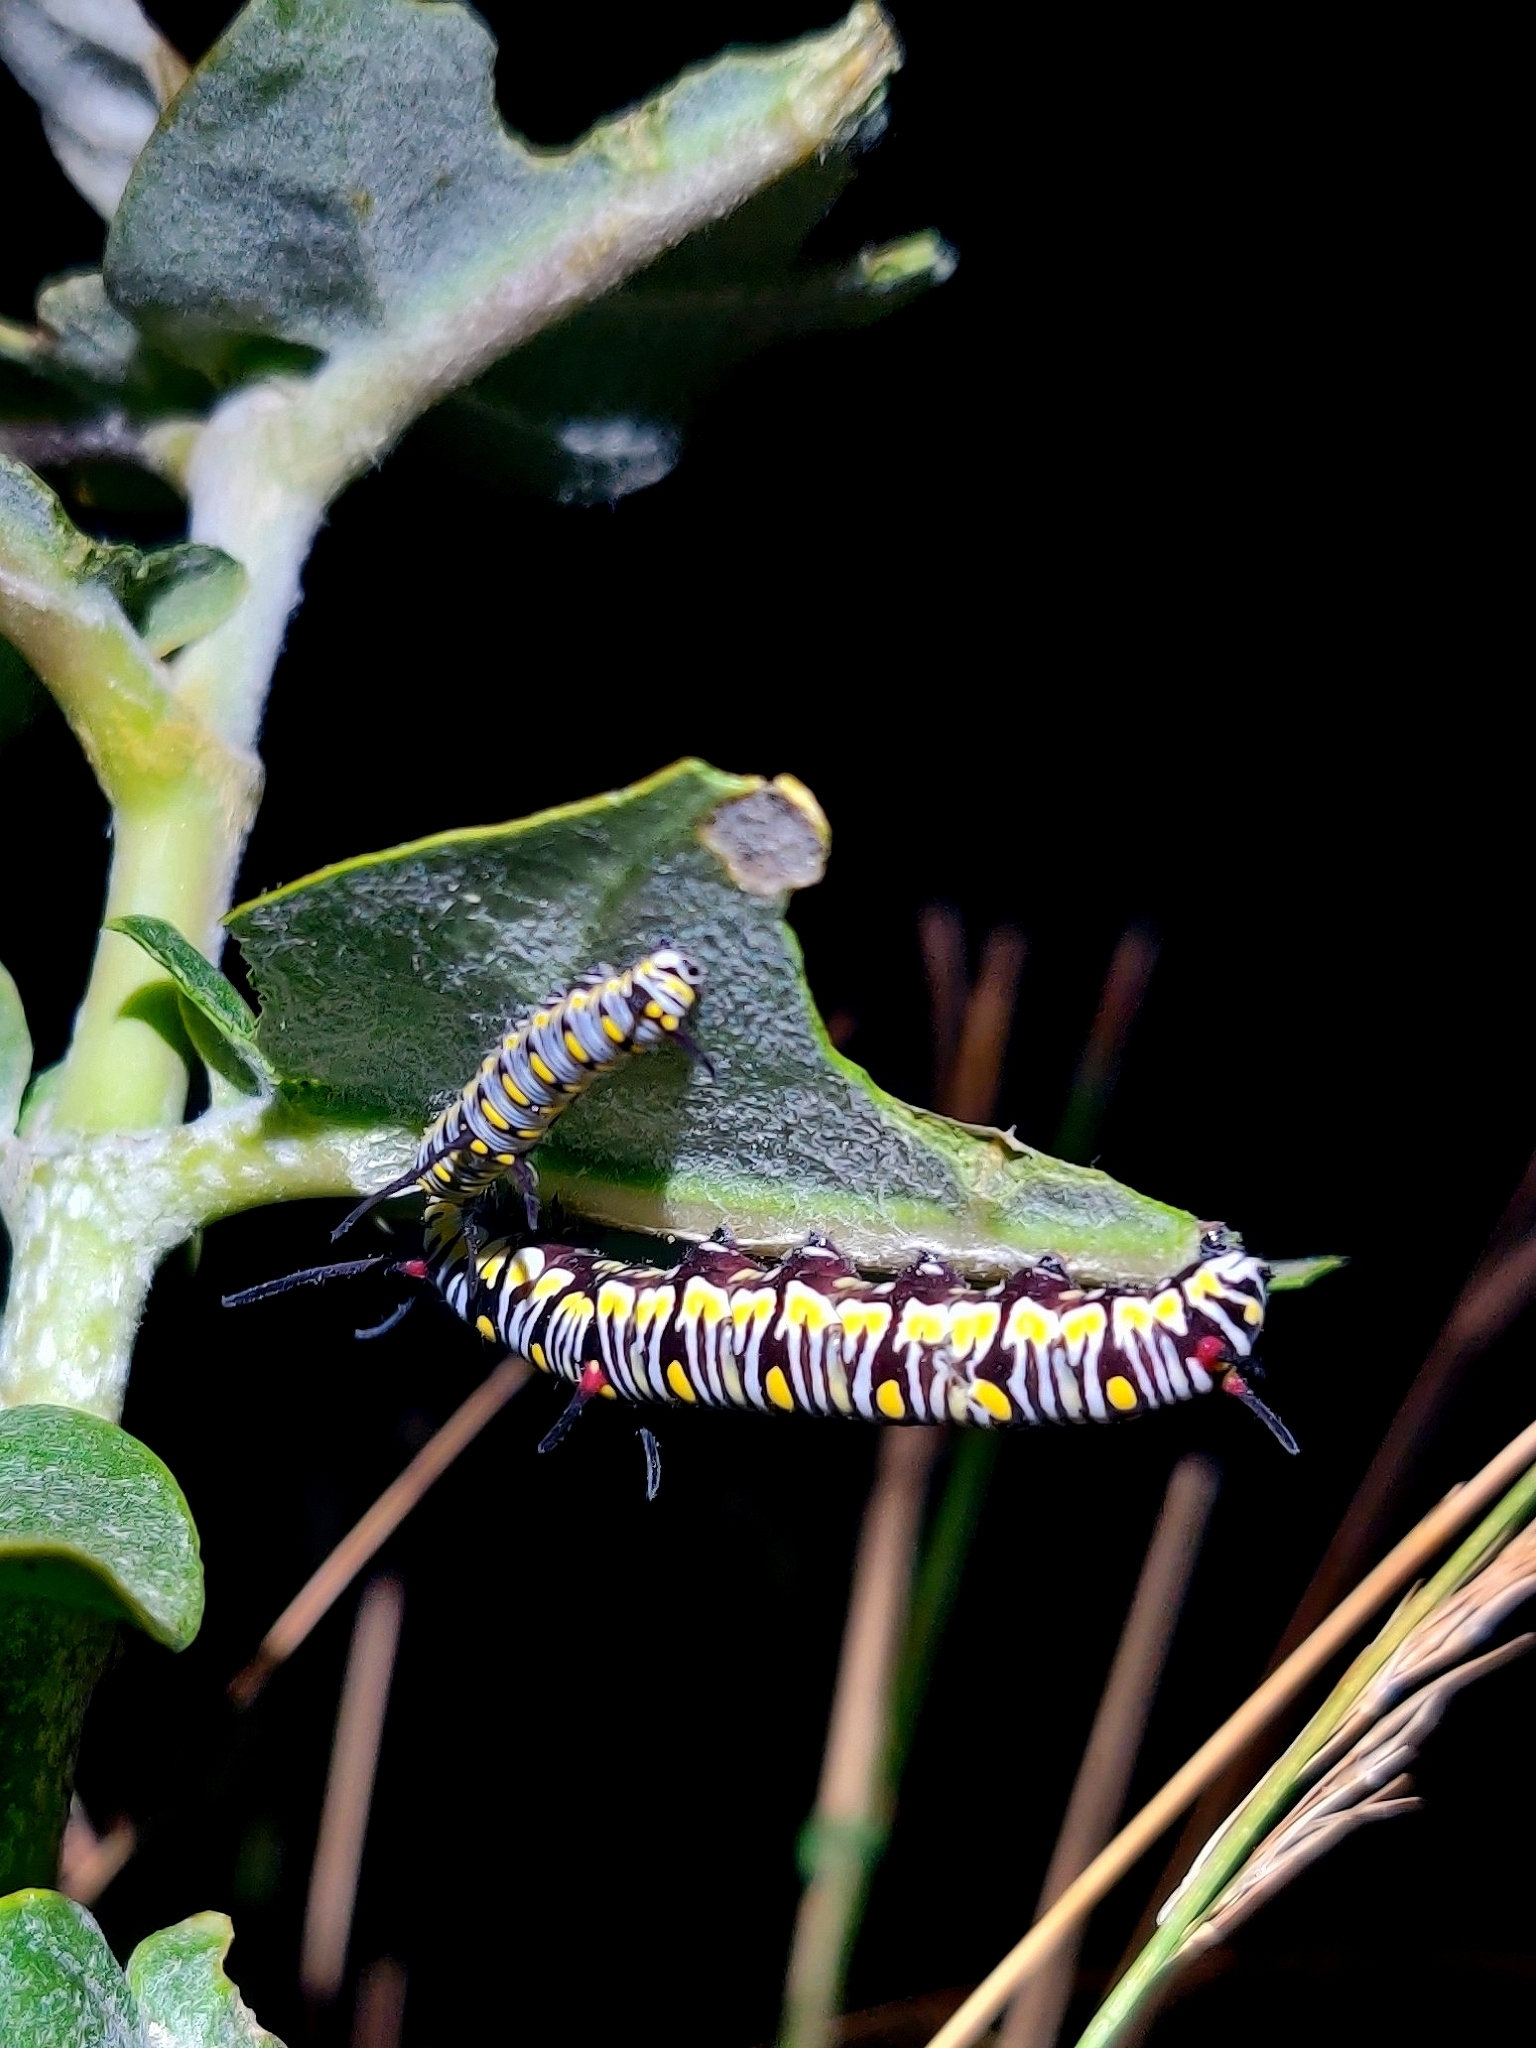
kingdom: Animalia
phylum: Arthropoda
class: Insecta
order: Lepidoptera
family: Nymphalidae
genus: Danaus
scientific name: Danaus chrysippus
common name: Plain tiger
